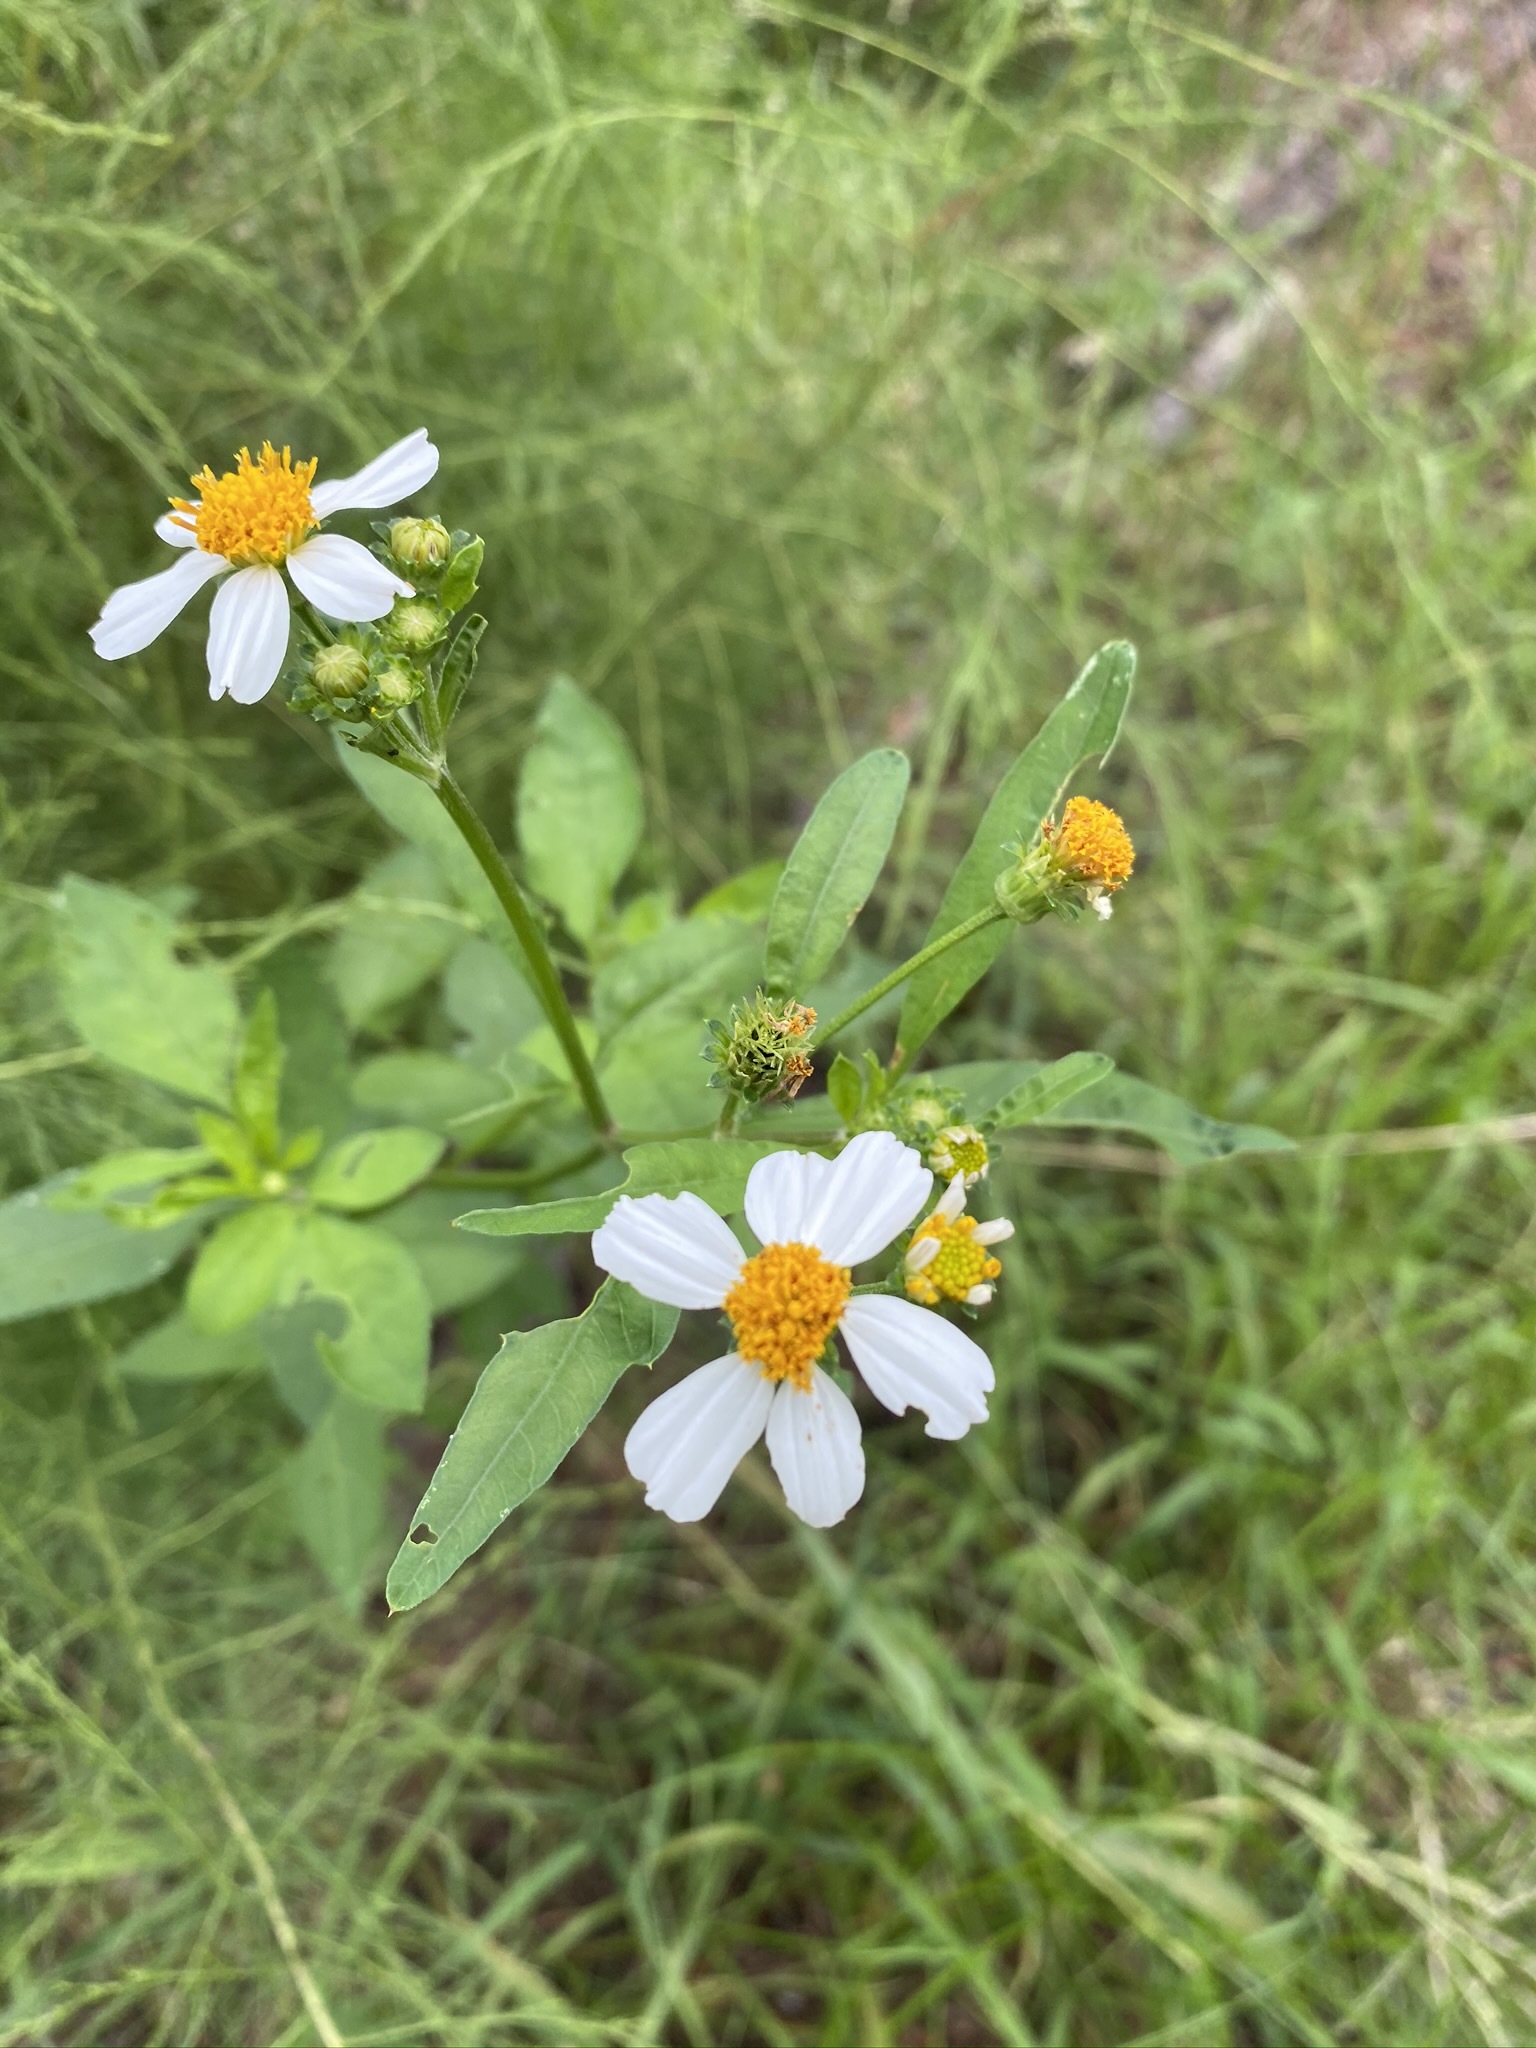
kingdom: Plantae
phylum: Tracheophyta
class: Magnoliopsida
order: Asterales
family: Asteraceae
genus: Bidens
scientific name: Bidens alba
